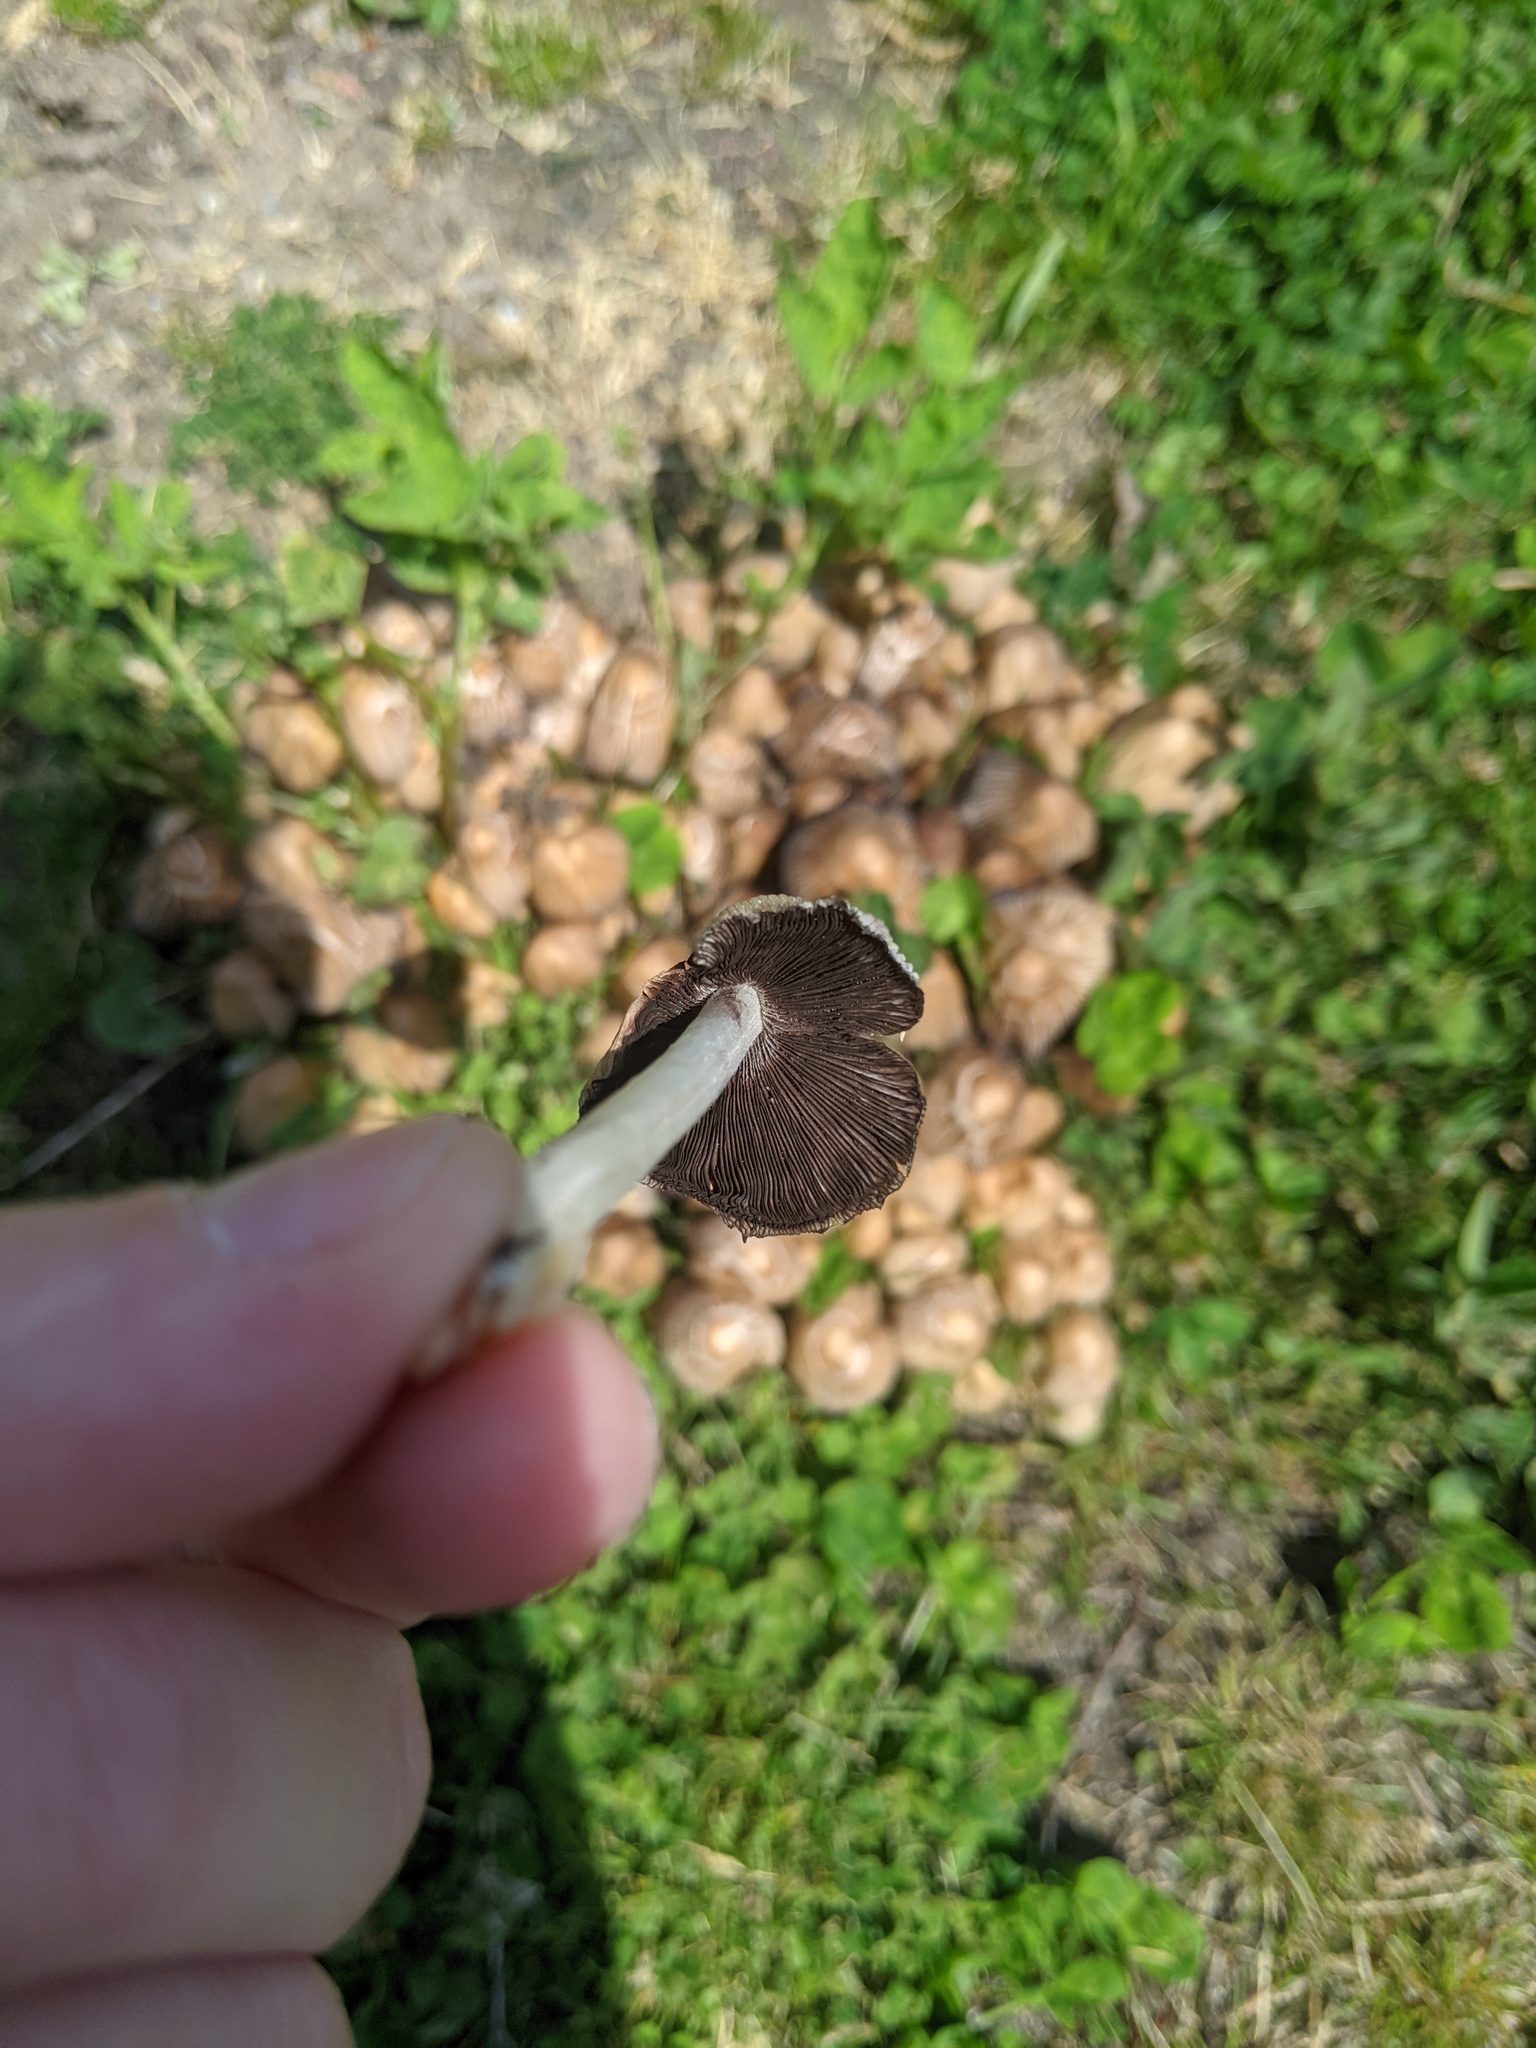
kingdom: Fungi
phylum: Basidiomycota
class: Agaricomycetes
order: Agaricales
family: Psathyrellaceae
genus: Coprinellus
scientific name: Coprinellus micaceus
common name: Glistening ink-cap
